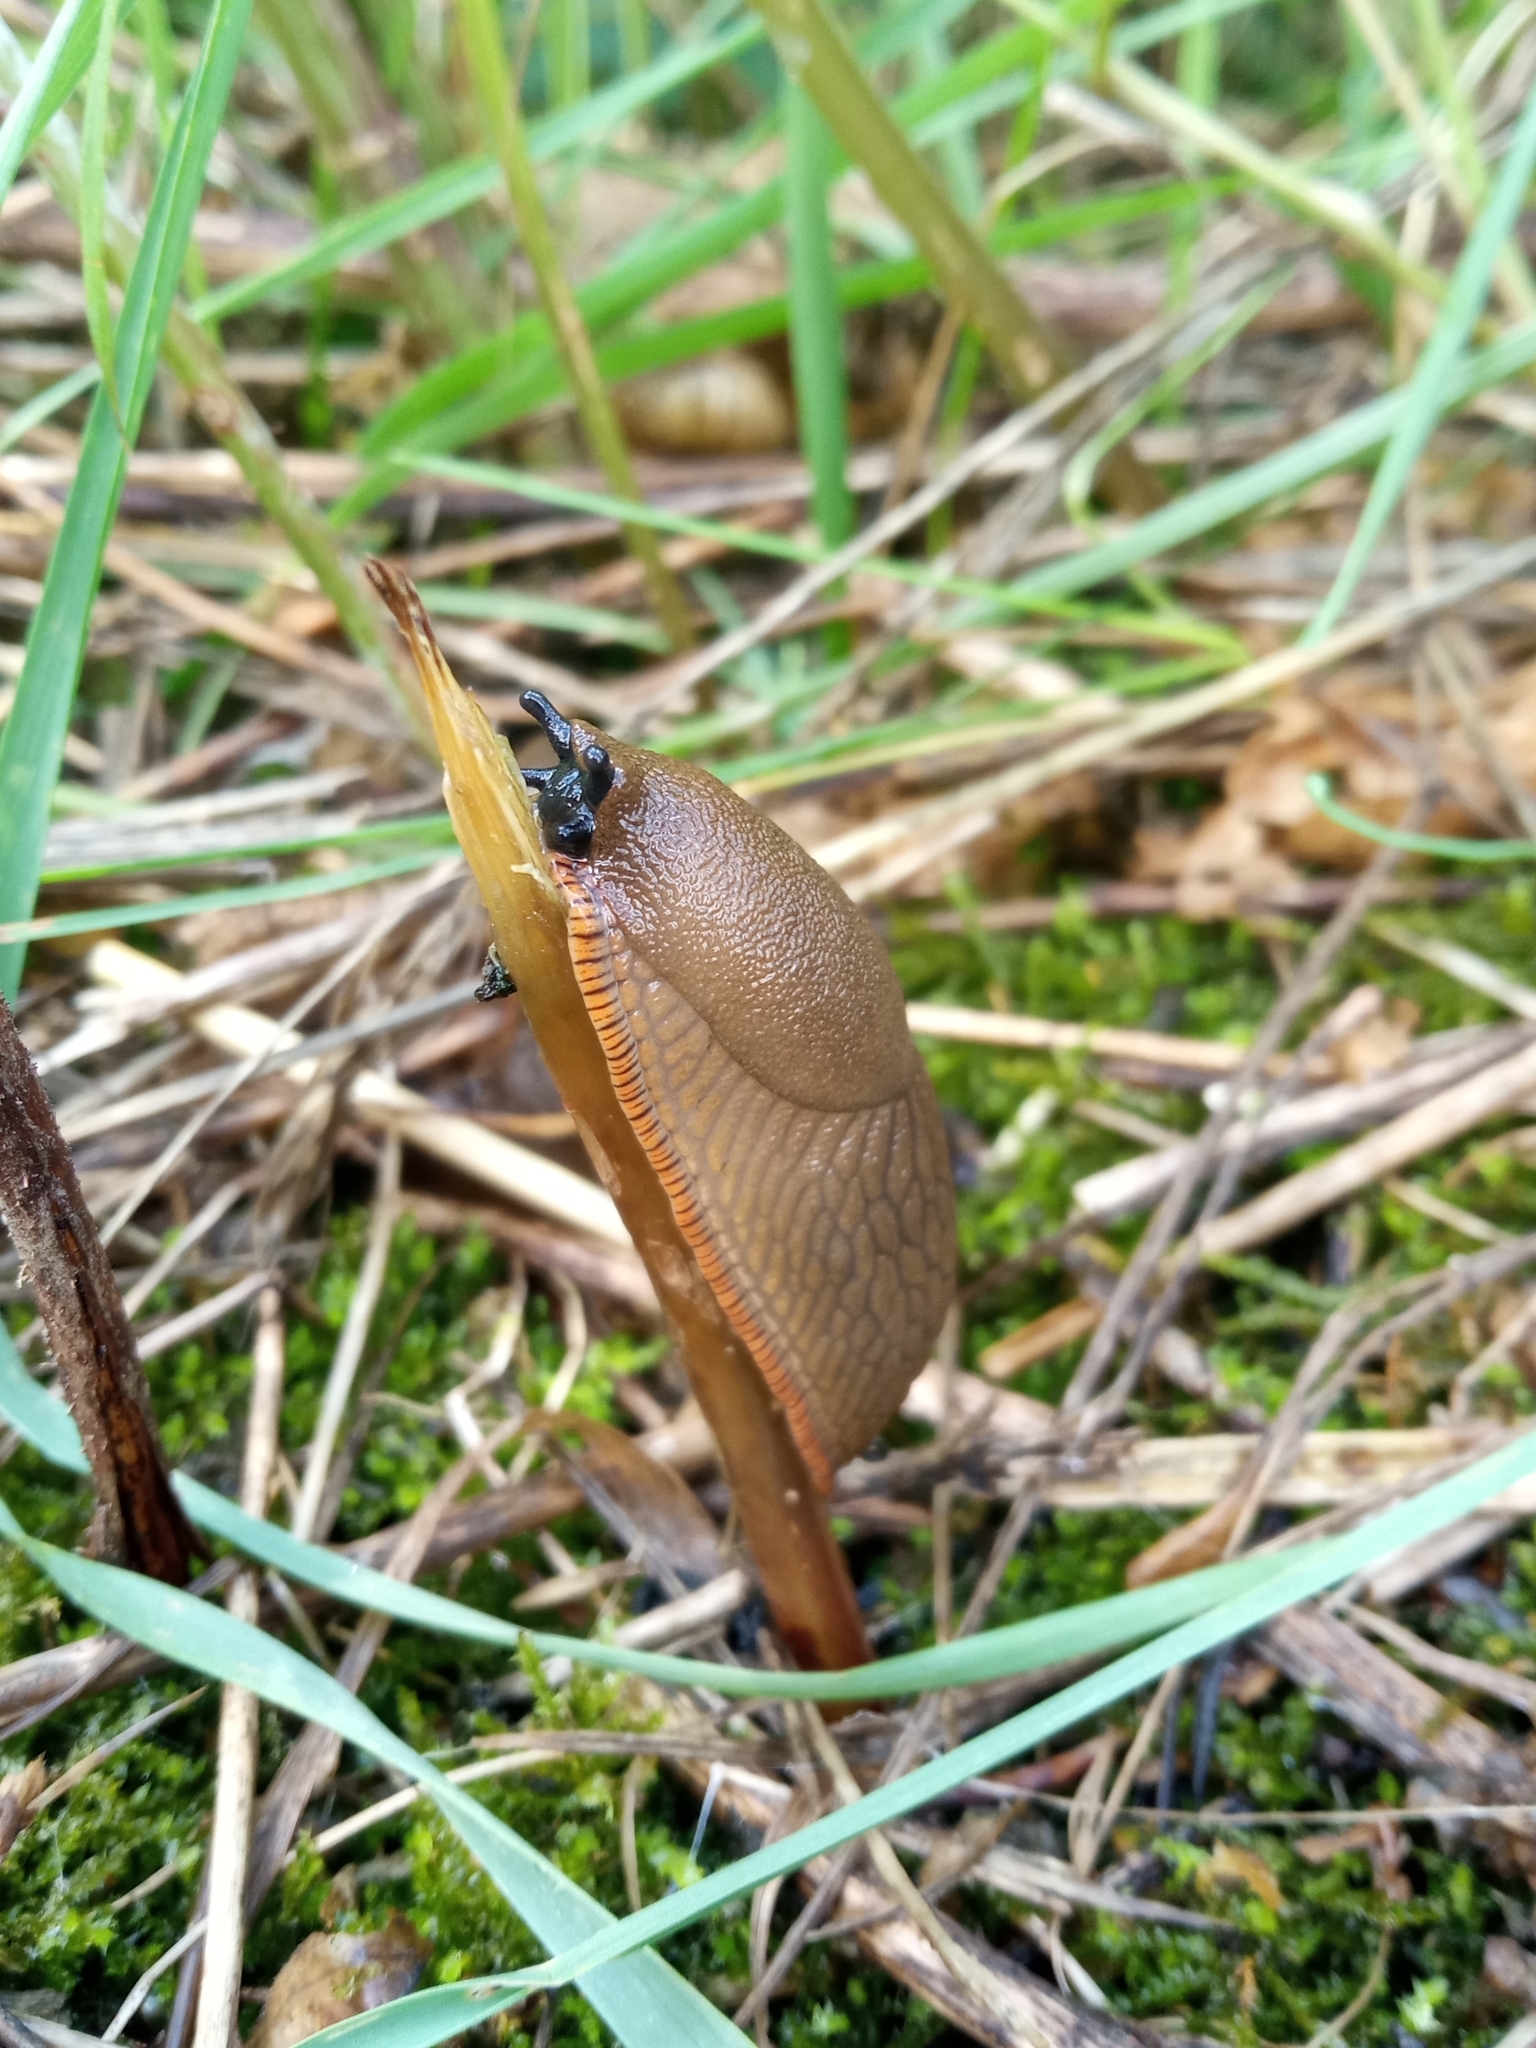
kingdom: Animalia
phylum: Mollusca
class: Gastropoda
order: Stylommatophora
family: Arionidae
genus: Arion
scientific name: Arion
